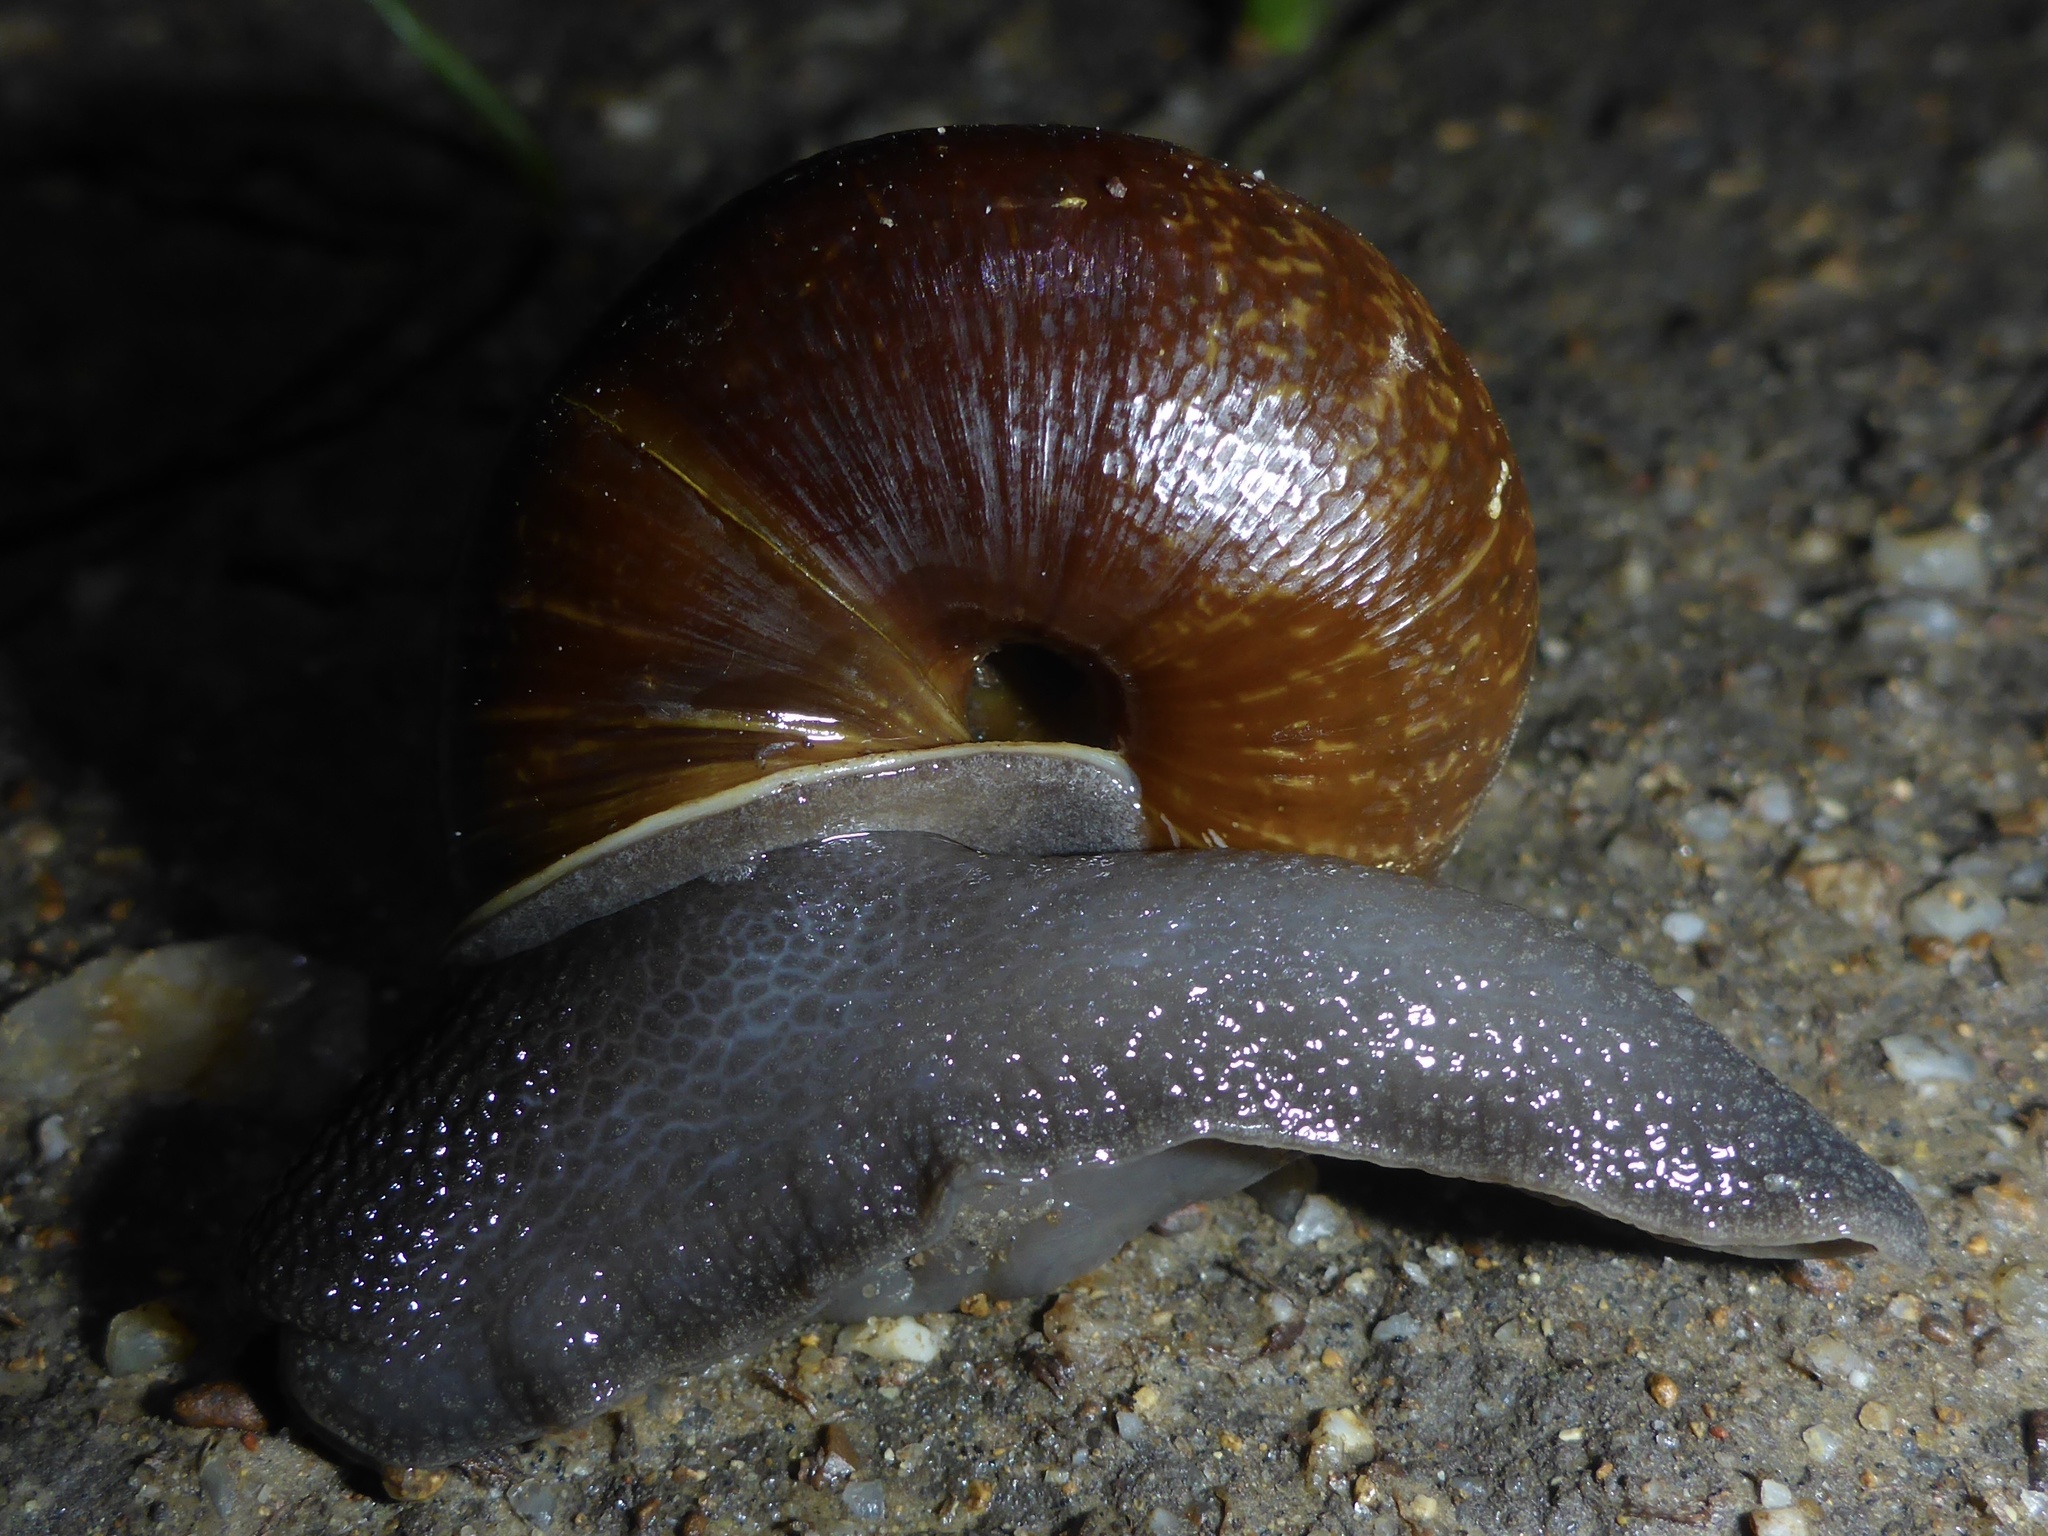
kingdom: Animalia
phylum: Mollusca
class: Gastropoda
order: Stylommatophora
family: Xanthonychidae
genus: Helminthoglypta
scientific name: Helminthoglypta arrosa
